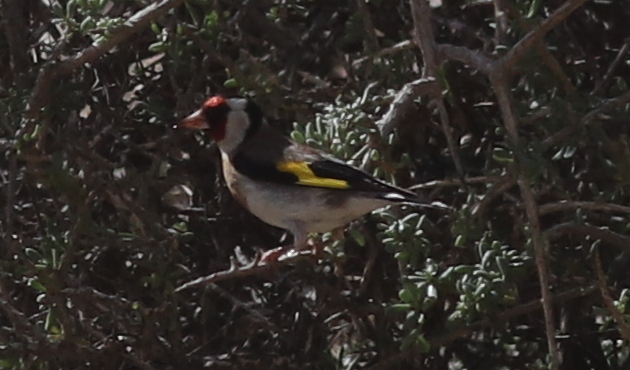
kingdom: Animalia
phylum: Chordata
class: Aves
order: Passeriformes
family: Fringillidae
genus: Carduelis
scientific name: Carduelis carduelis
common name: European goldfinch
